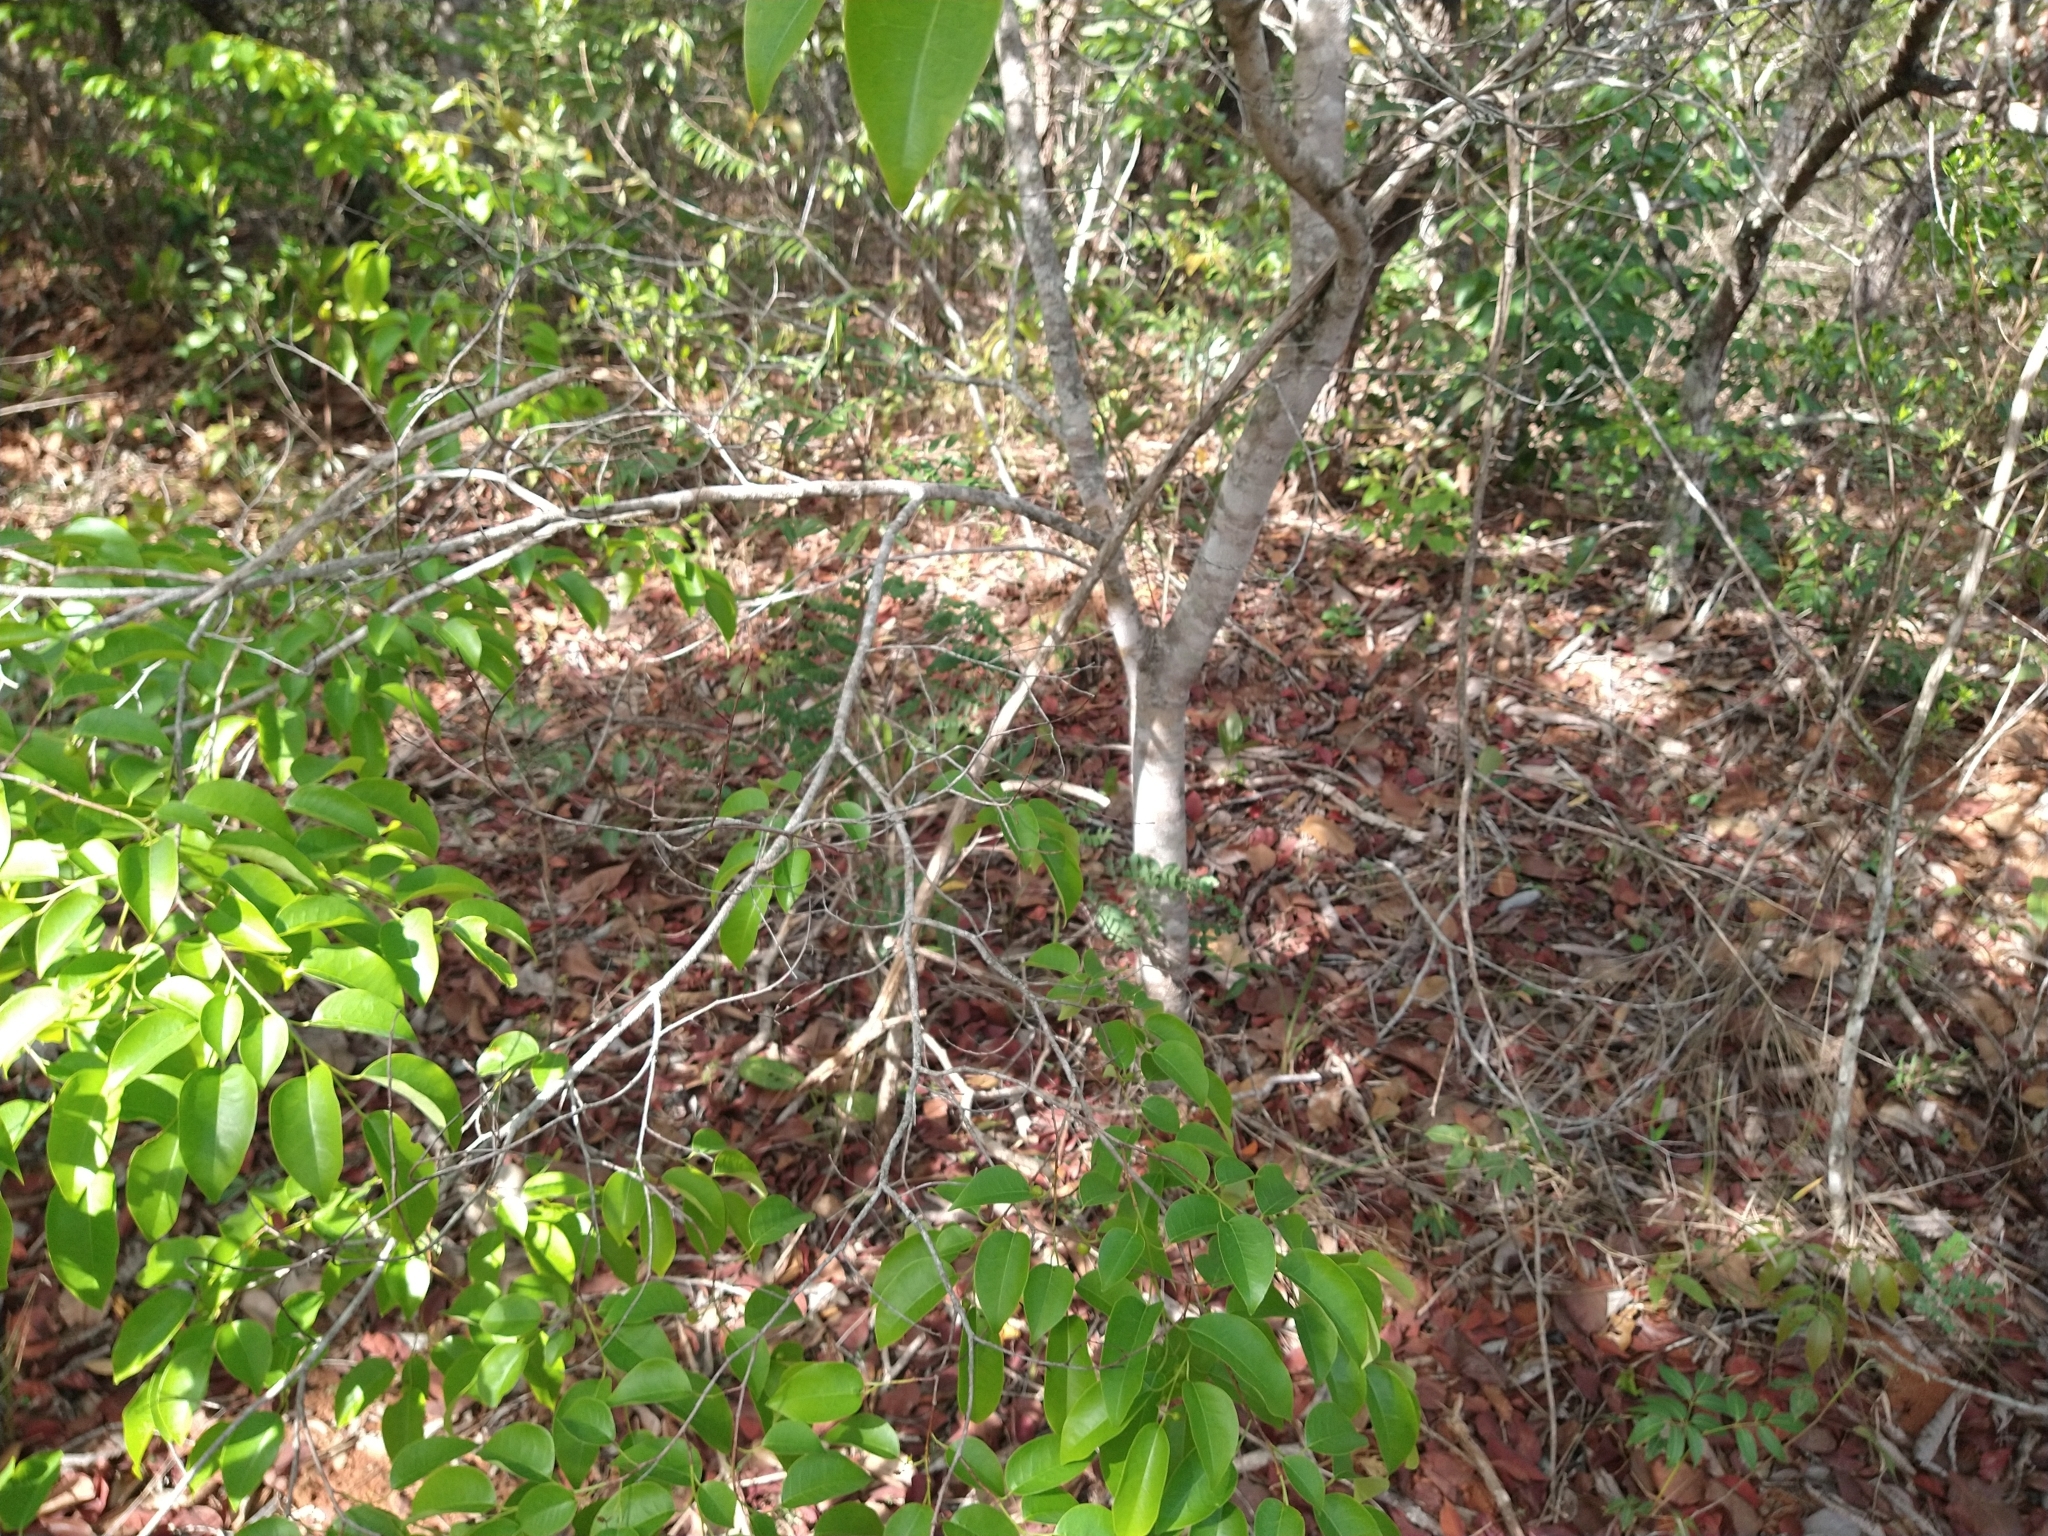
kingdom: Plantae
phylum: Tracheophyta
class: Magnoliopsida
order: Malpighiales
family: Euphorbiaceae
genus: Maprounea
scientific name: Maprounea guianensis
